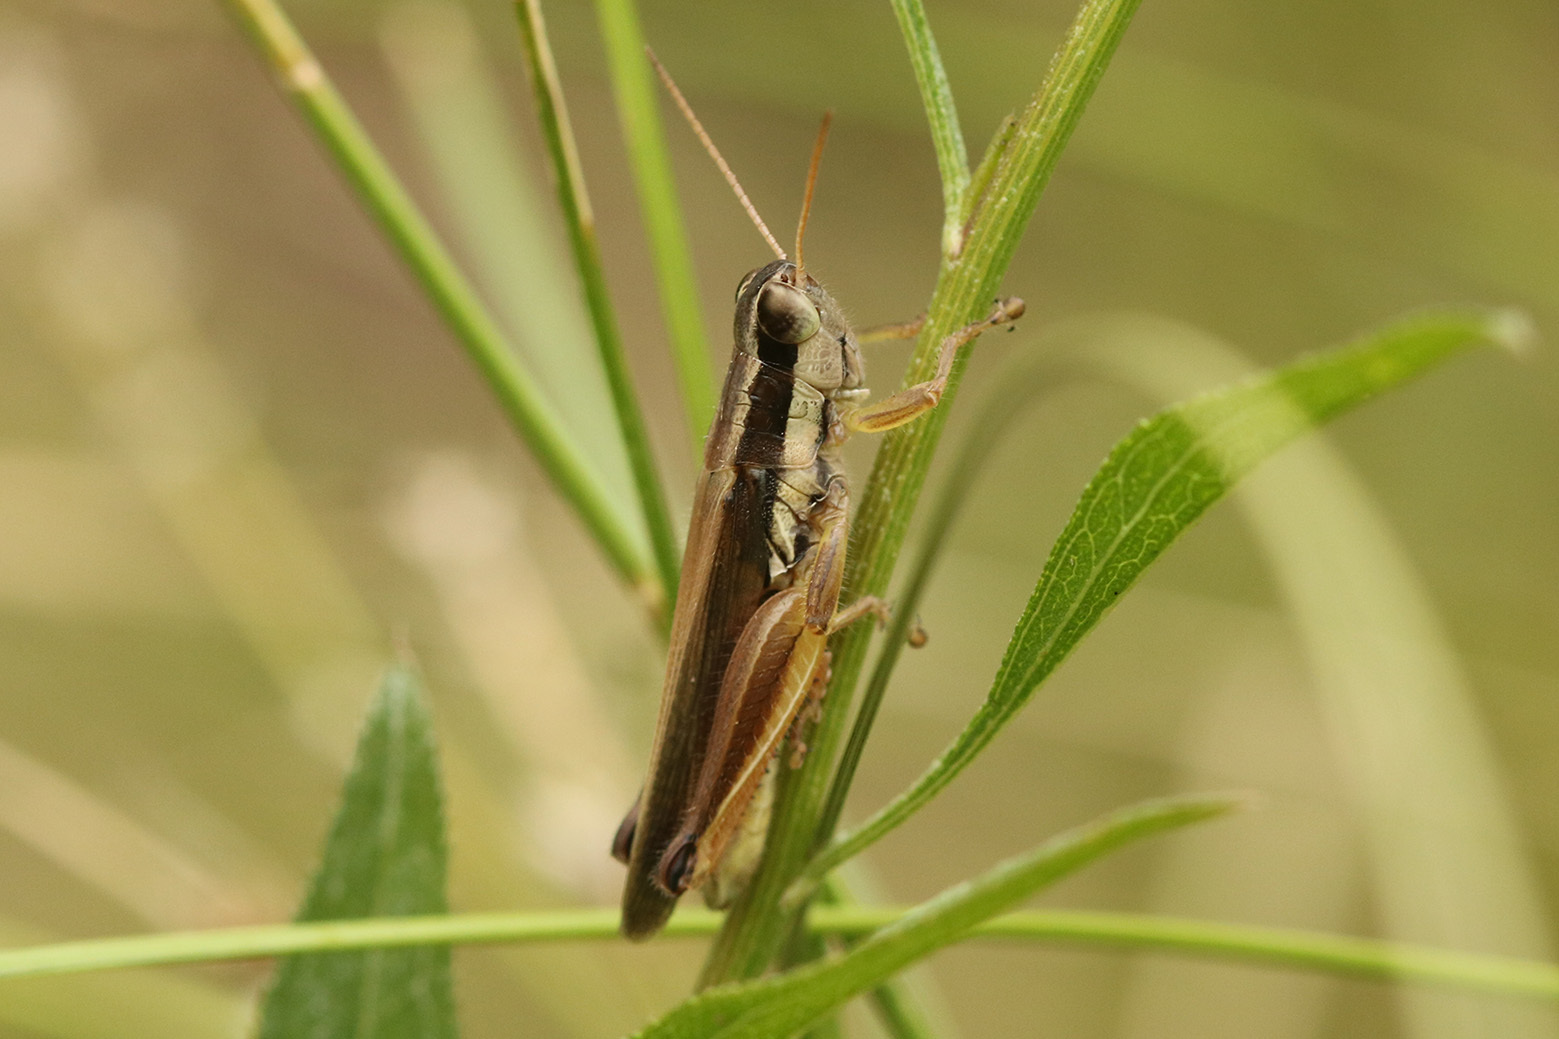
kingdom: Animalia
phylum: Arthropoda
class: Insecta
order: Orthoptera
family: Acrididae
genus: Scotussa
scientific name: Scotussa lemniscata
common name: Slender orange-legged grasshopper
